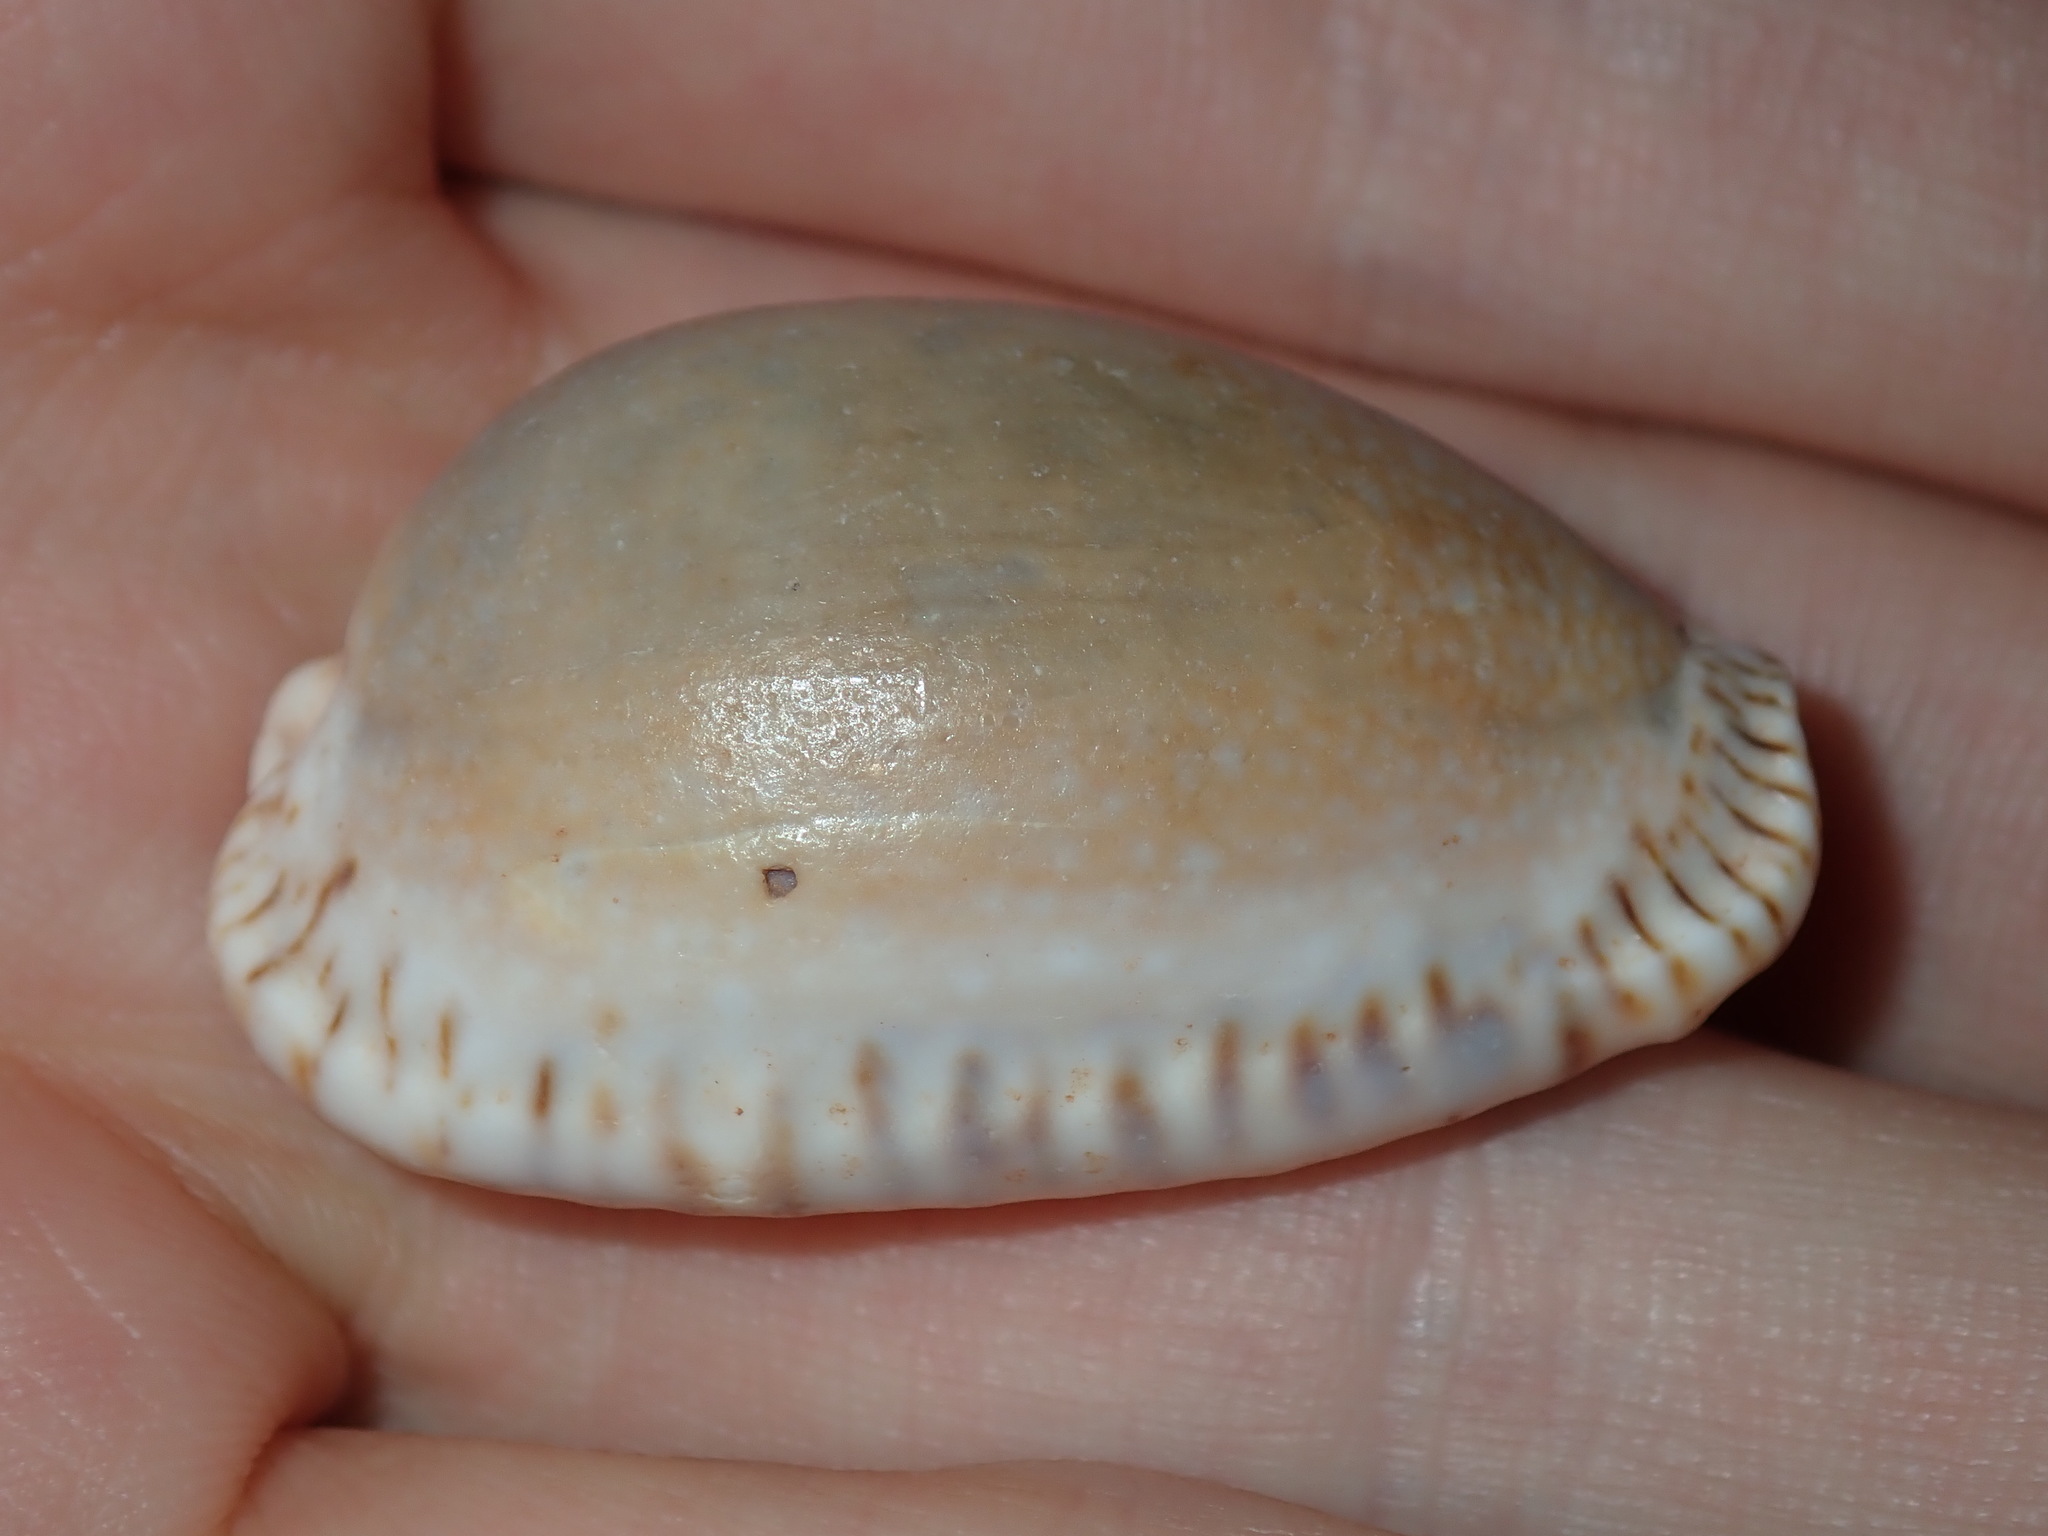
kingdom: Animalia
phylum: Mollusca
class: Gastropoda
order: Littorinimorpha
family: Cypraeidae
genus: Naria
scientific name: Naria erosa
